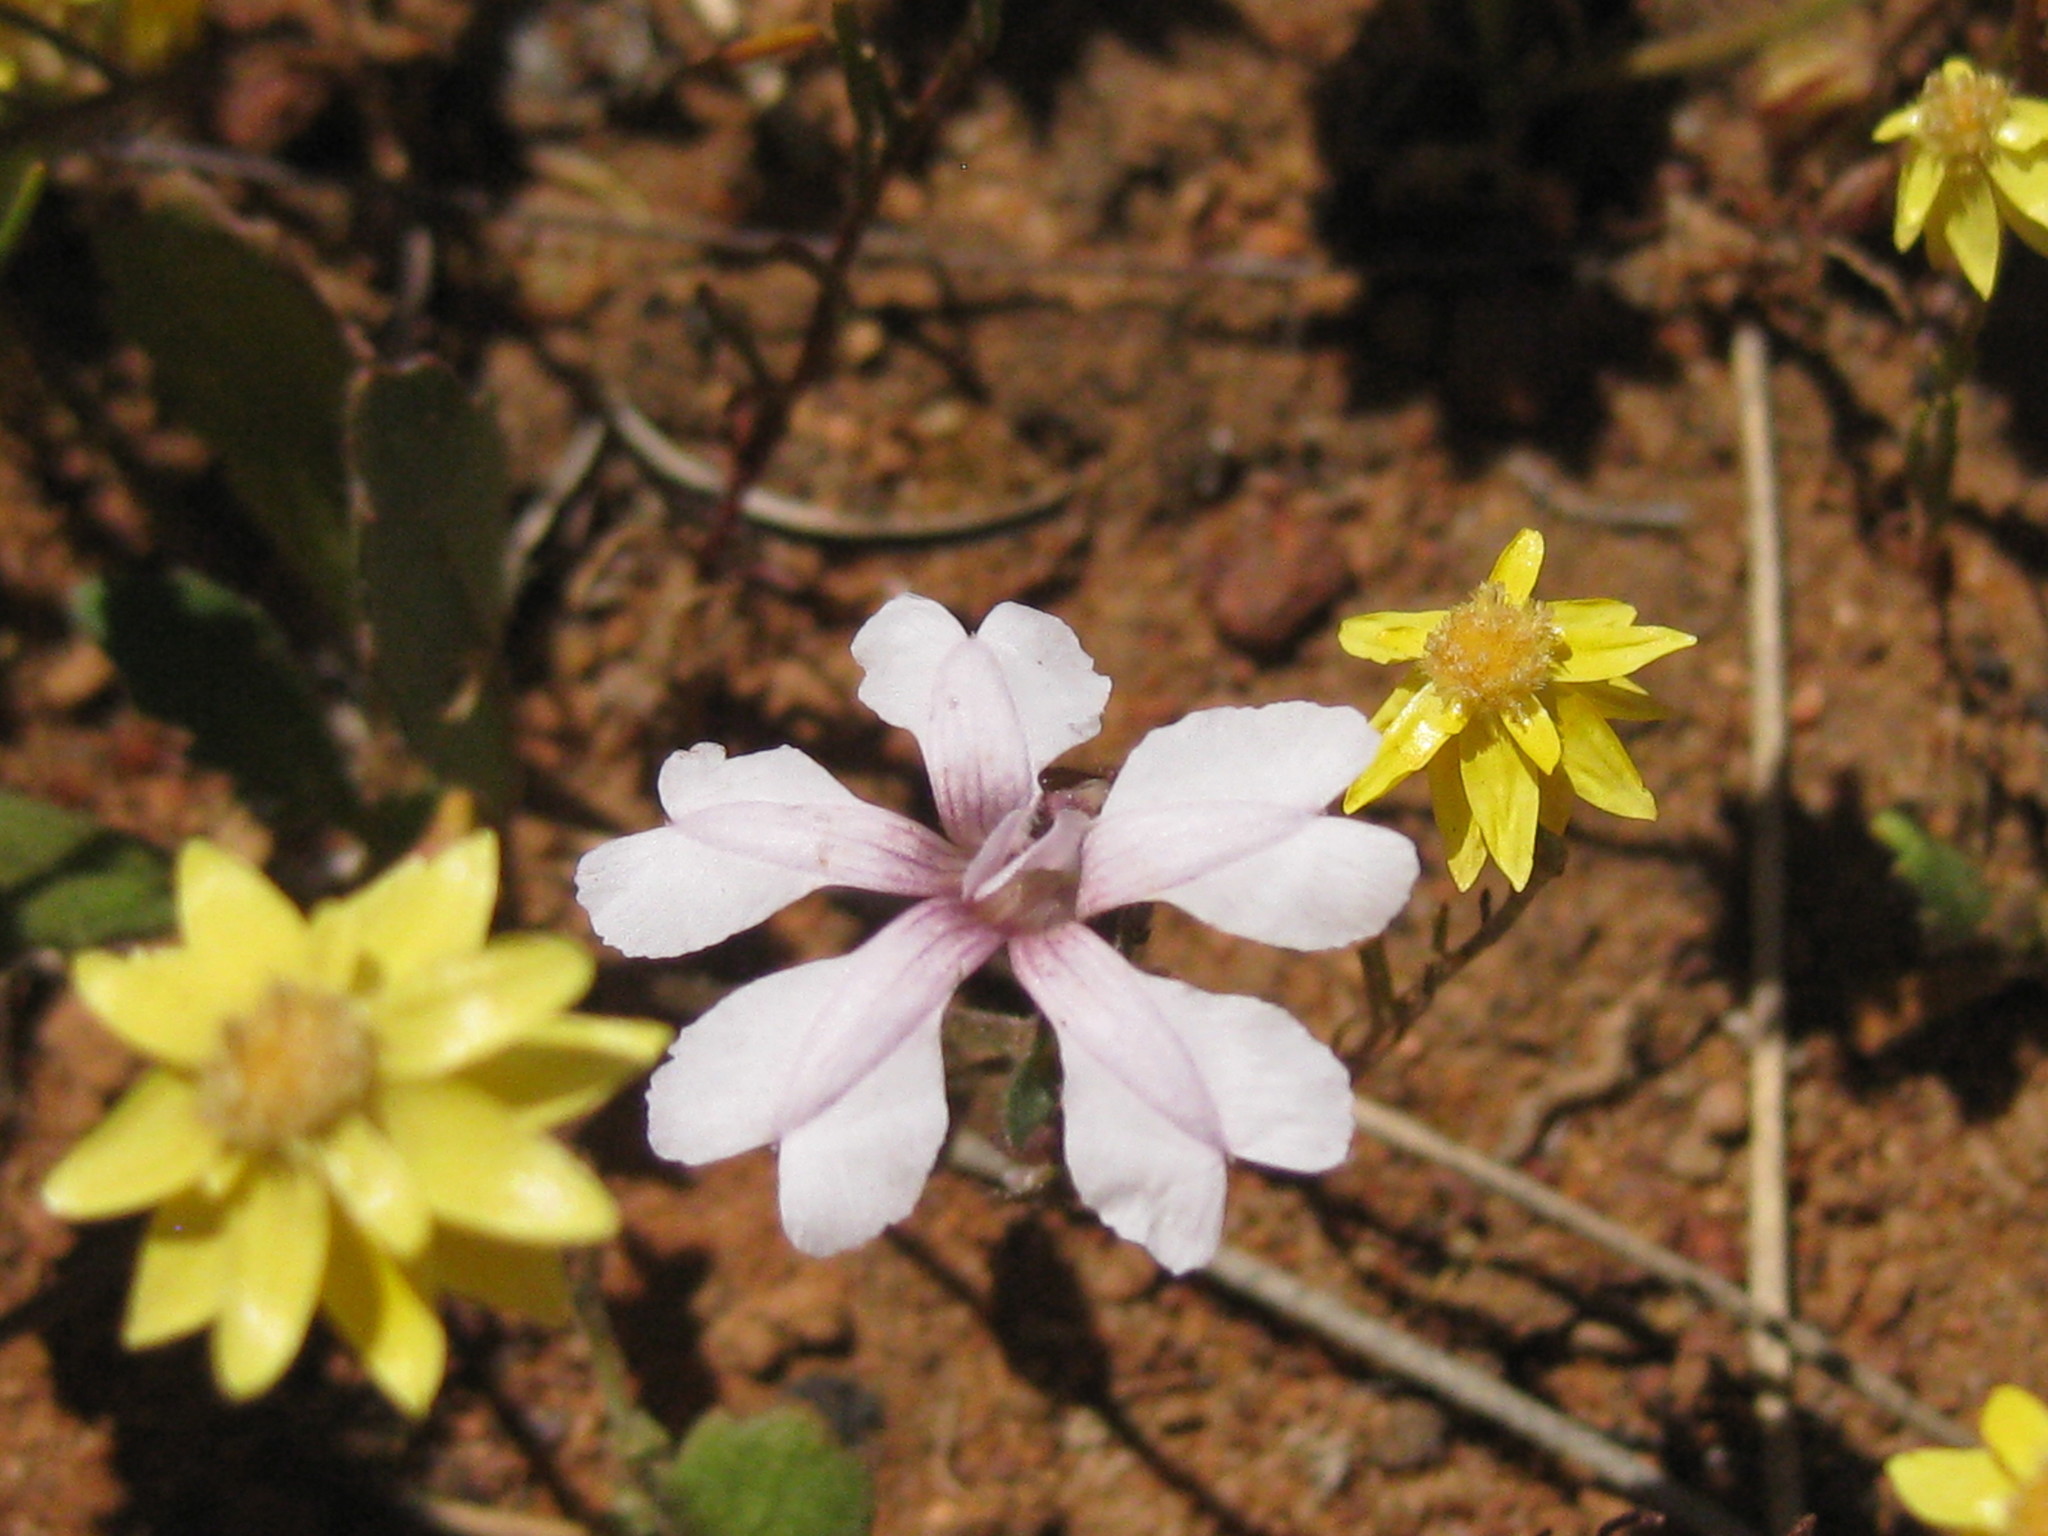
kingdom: Plantae
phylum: Tracheophyta
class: Magnoliopsida
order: Asterales
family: Goodeniaceae
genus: Goodenia
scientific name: Goodenia rosea
